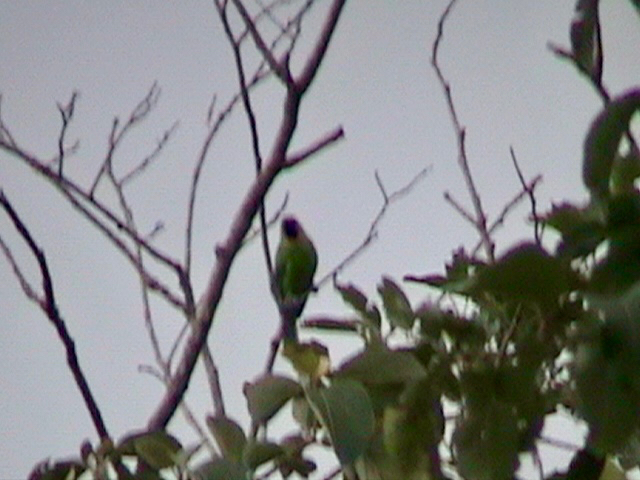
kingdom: Animalia
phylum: Chordata
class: Aves
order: Passeriformes
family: Chloropseidae
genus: Chloropsis
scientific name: Chloropsis aurifrons
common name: Golden-fronted leafbird
